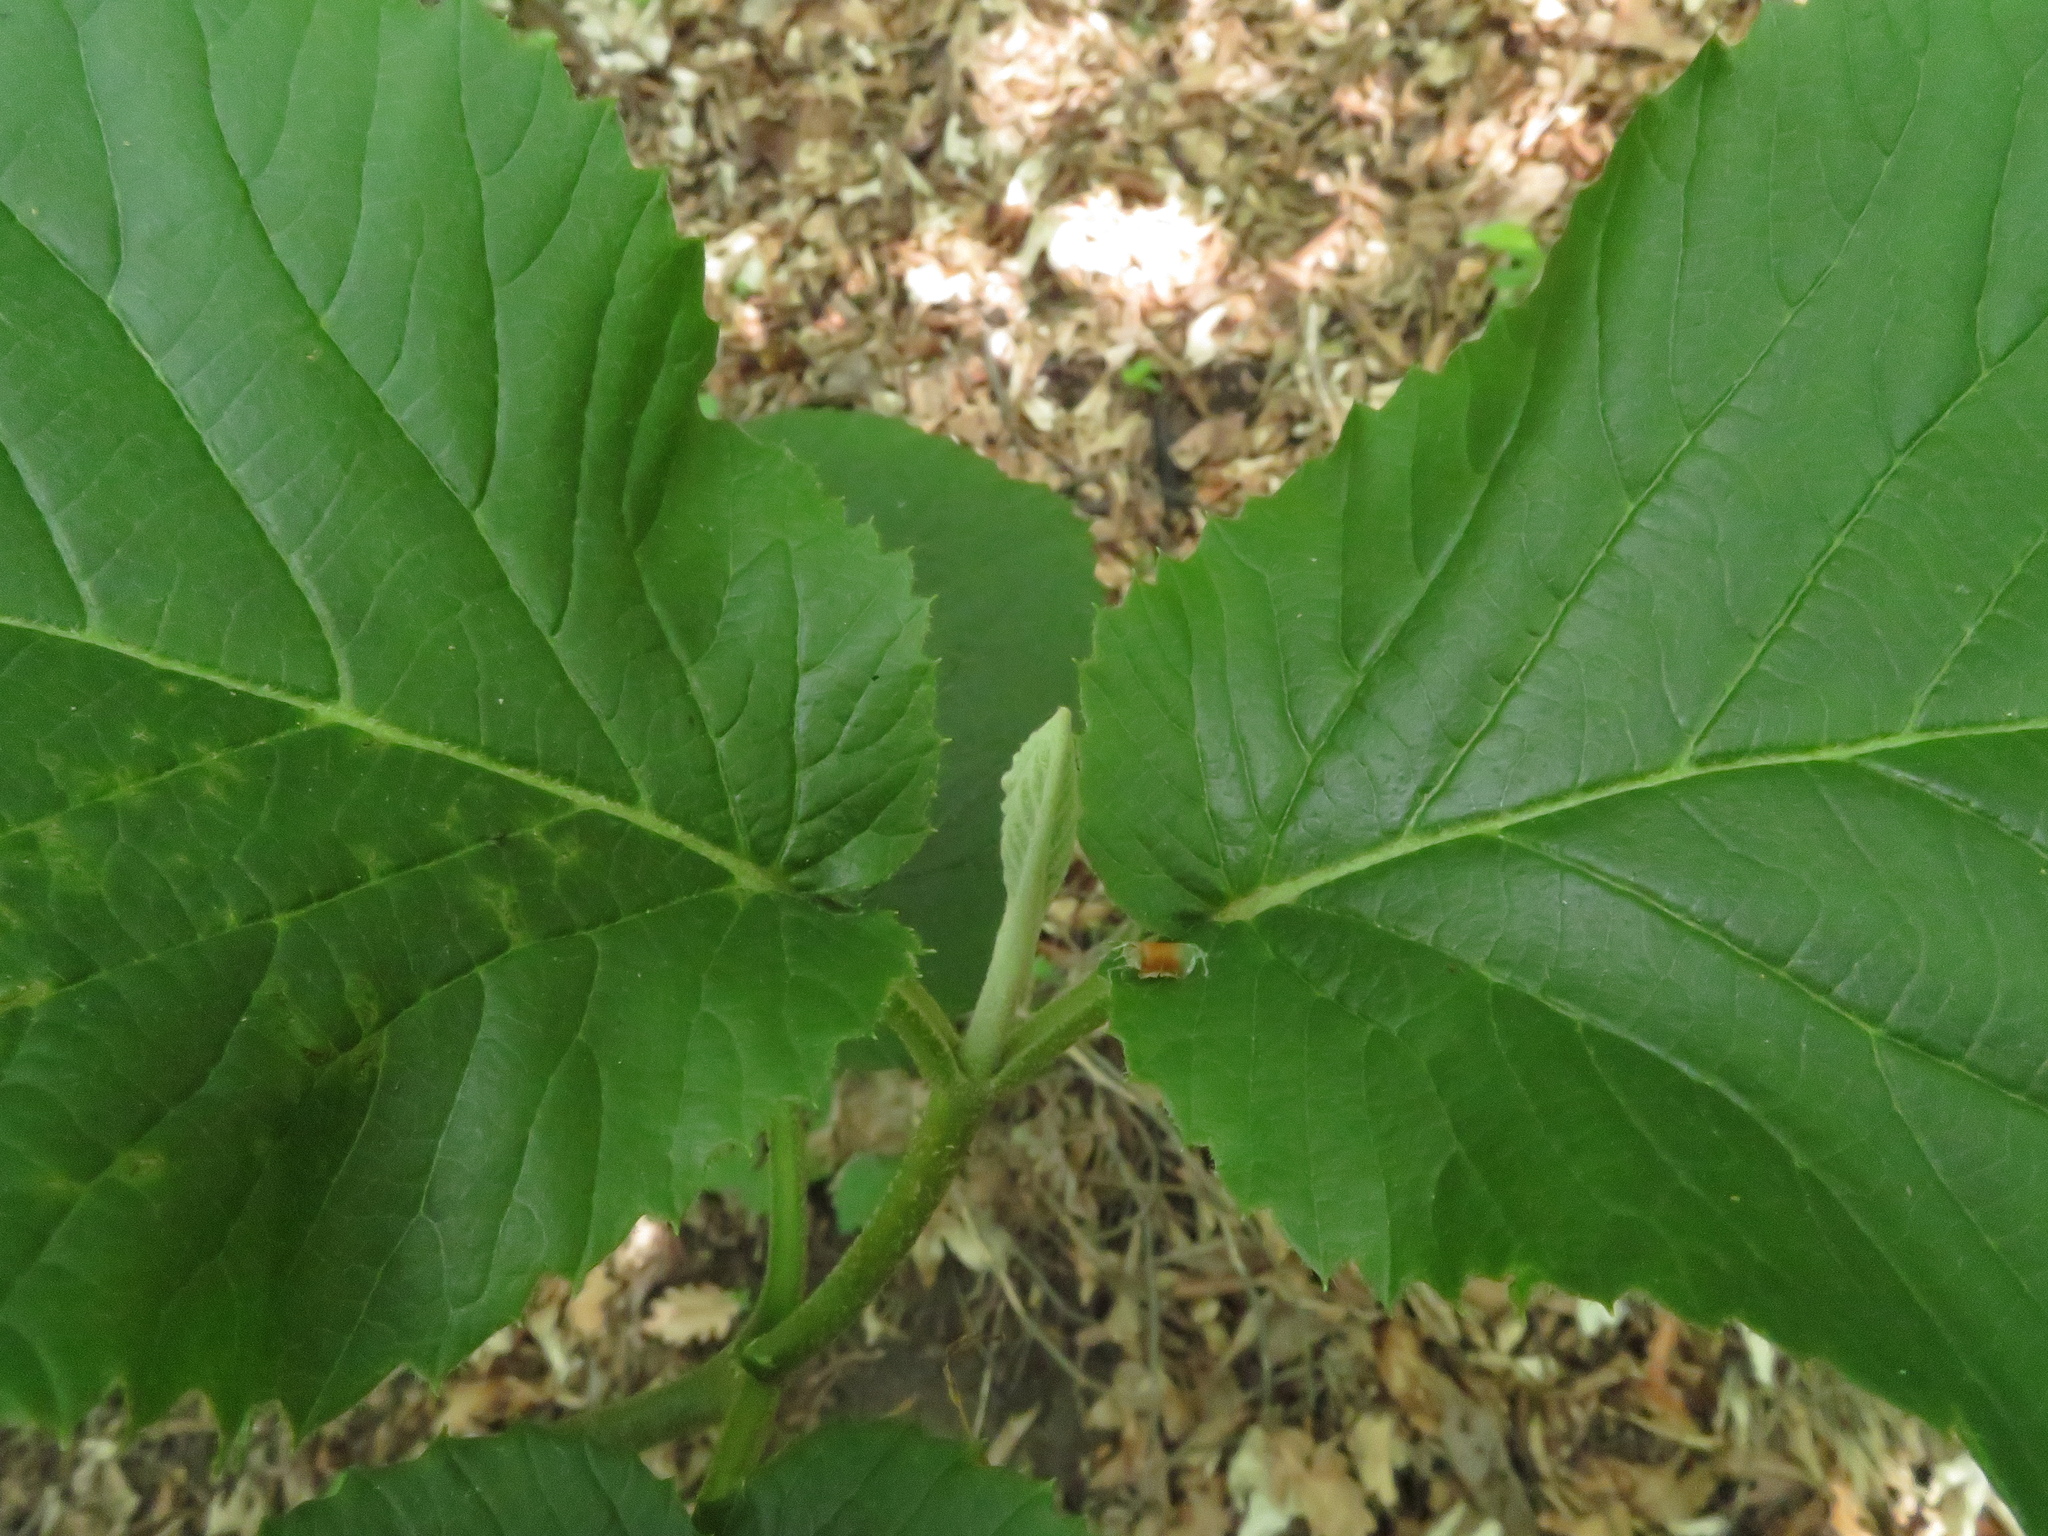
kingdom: Plantae
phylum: Tracheophyta
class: Magnoliopsida
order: Dipsacales
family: Viburnaceae
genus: Viburnum
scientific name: Viburnum lantana
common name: Wayfaring tree
